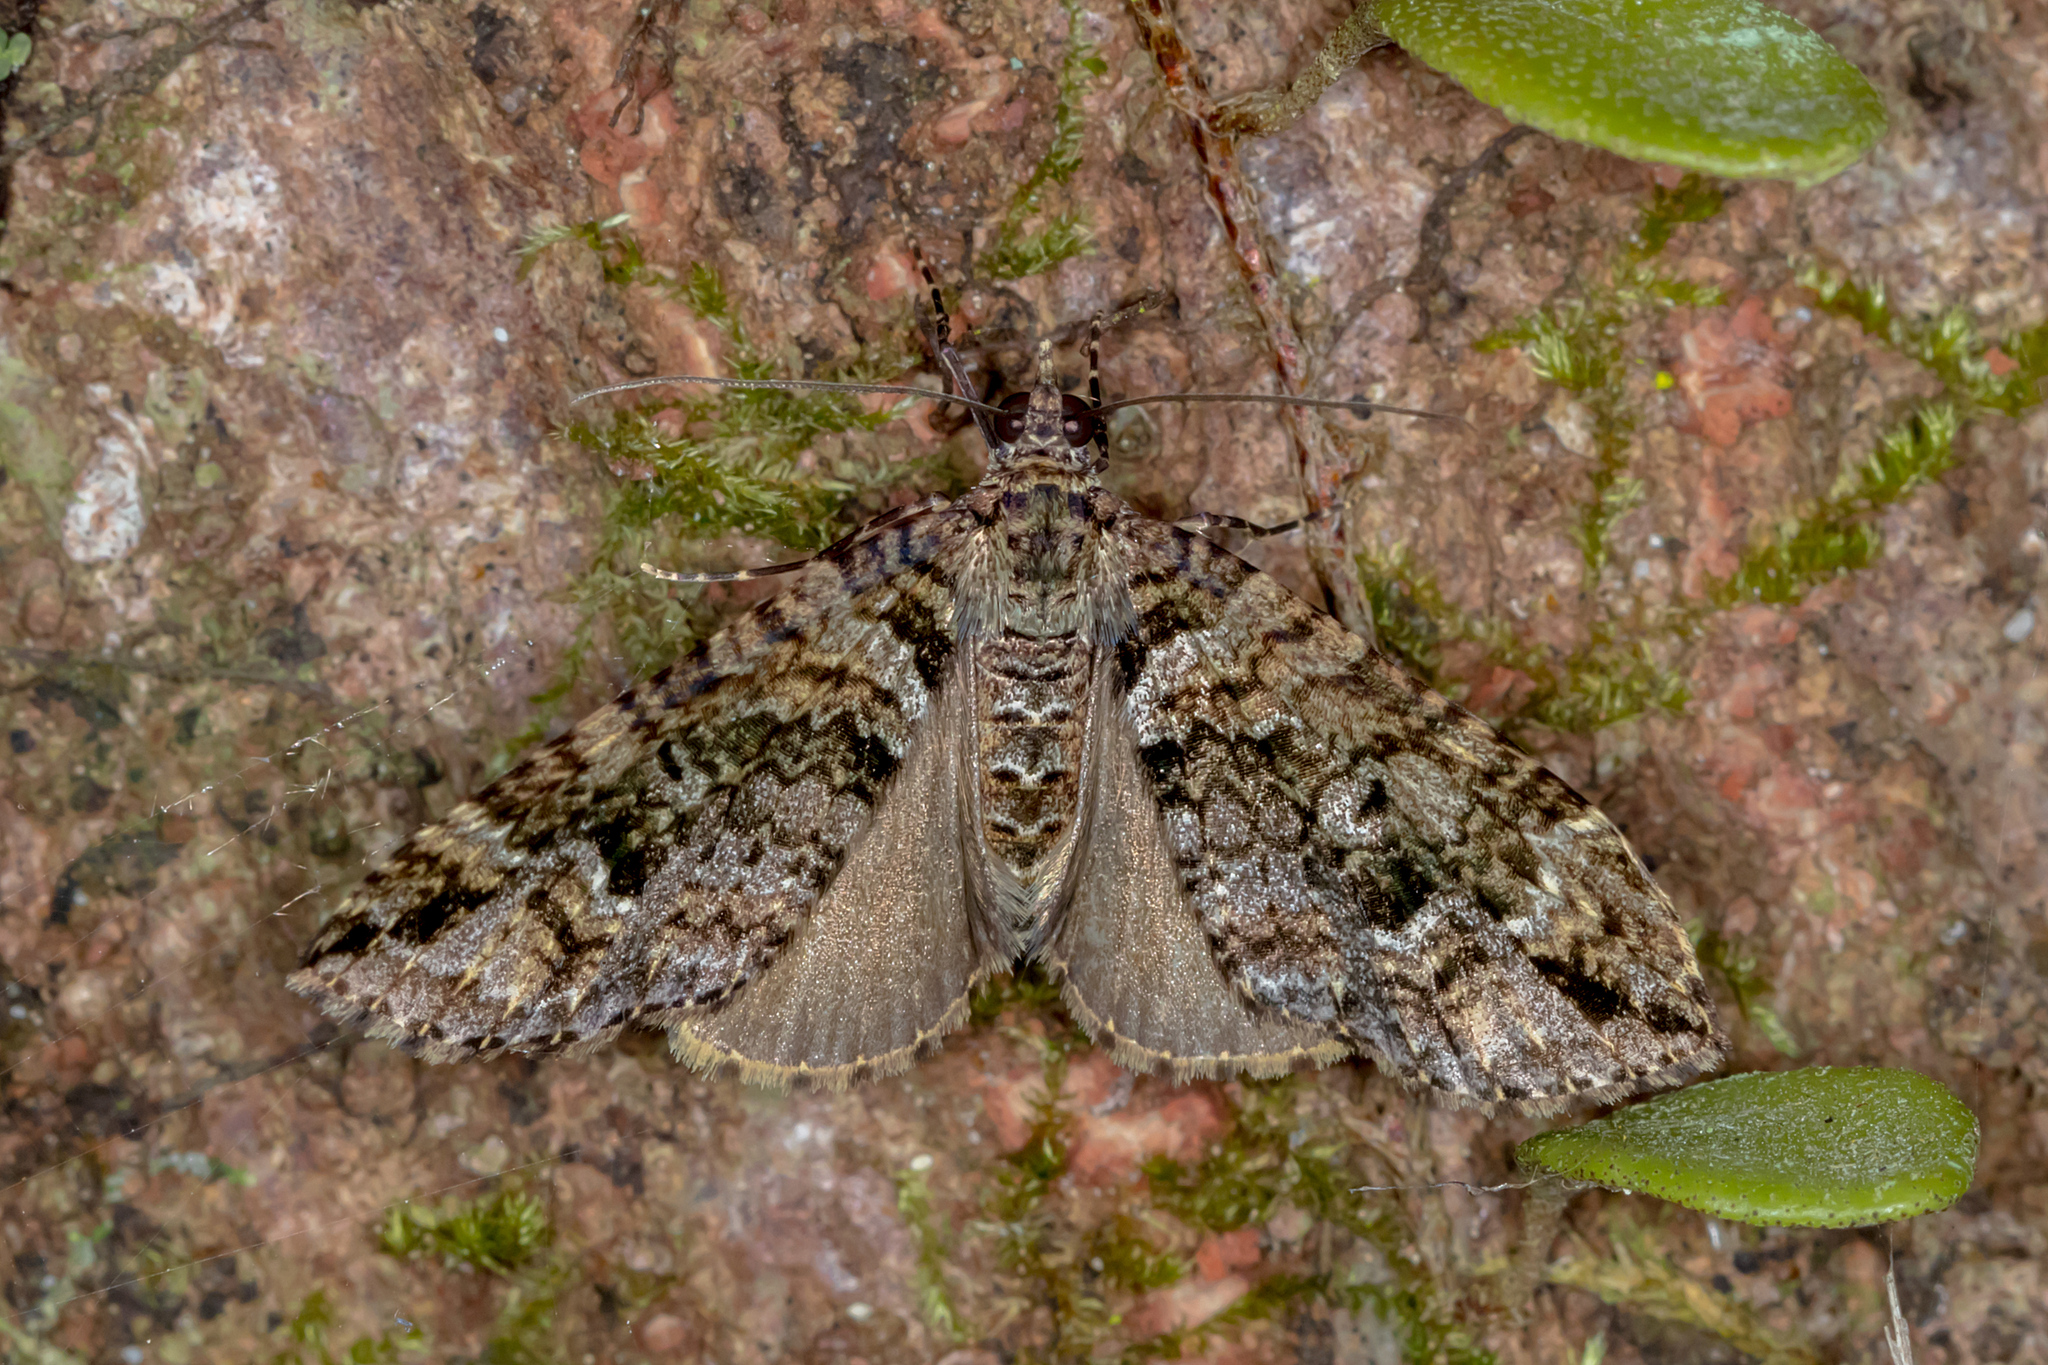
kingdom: Animalia
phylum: Arthropoda
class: Insecta
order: Lepidoptera
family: Geometridae
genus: Crasilogia
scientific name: Crasilogia gressitti
